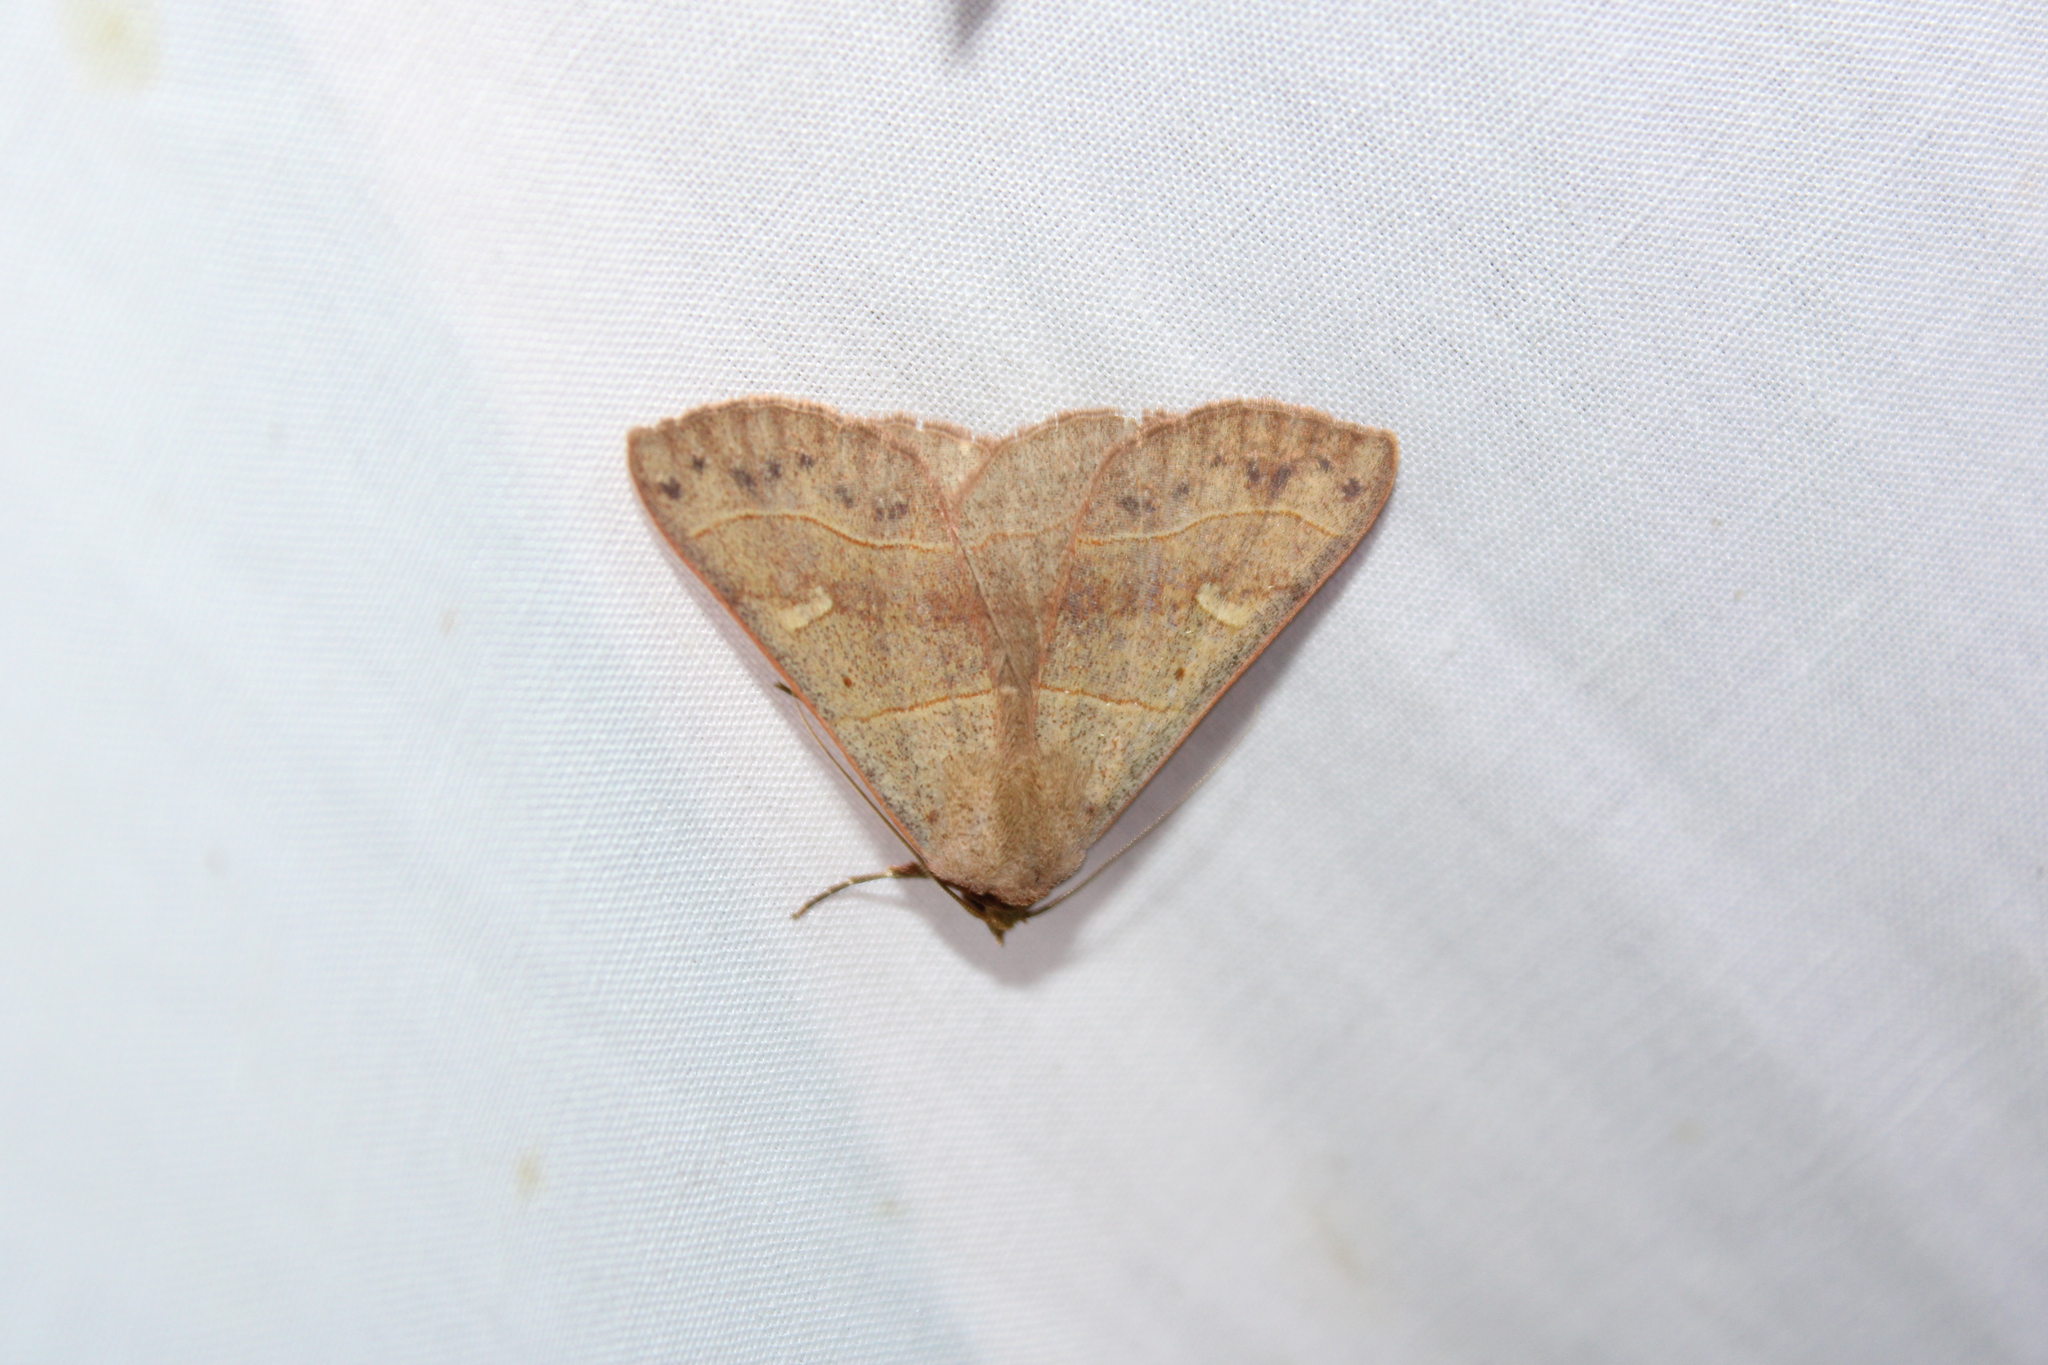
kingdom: Animalia
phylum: Arthropoda
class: Insecta
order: Lepidoptera
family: Erebidae
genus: Panopoda
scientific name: Panopoda rufimargo
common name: Red-lined panopoda moth
